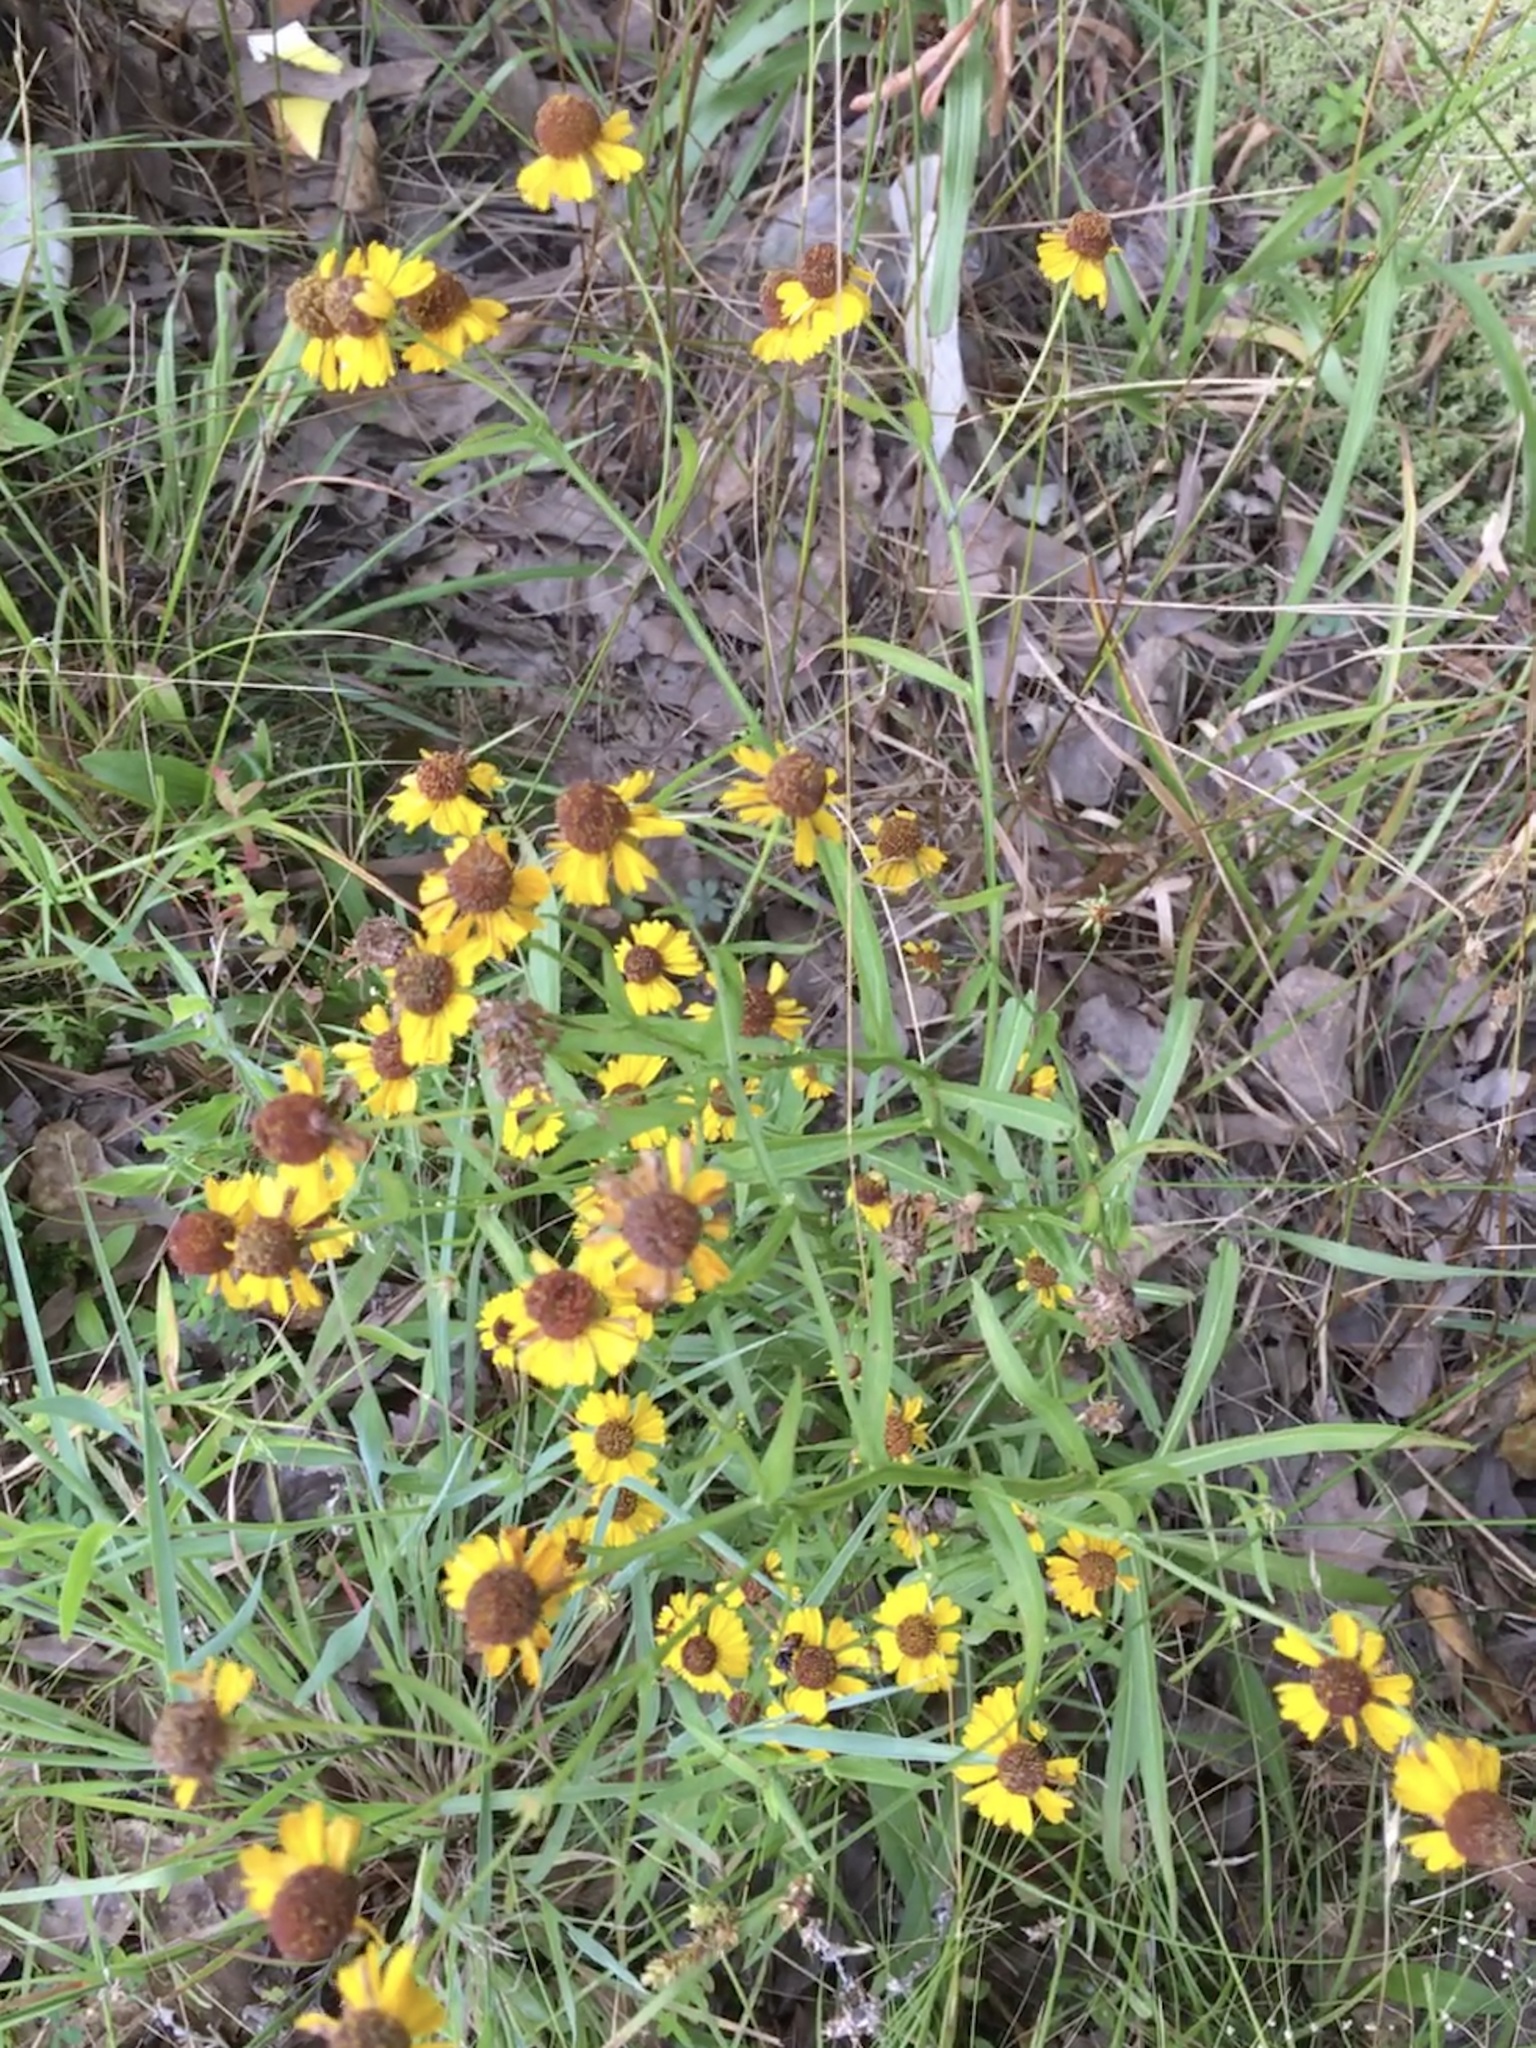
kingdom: Plantae
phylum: Tracheophyta
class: Magnoliopsida
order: Asterales
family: Asteraceae
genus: Helenium
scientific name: Helenium flexuosum
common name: Naked-flowered sneezeweed
